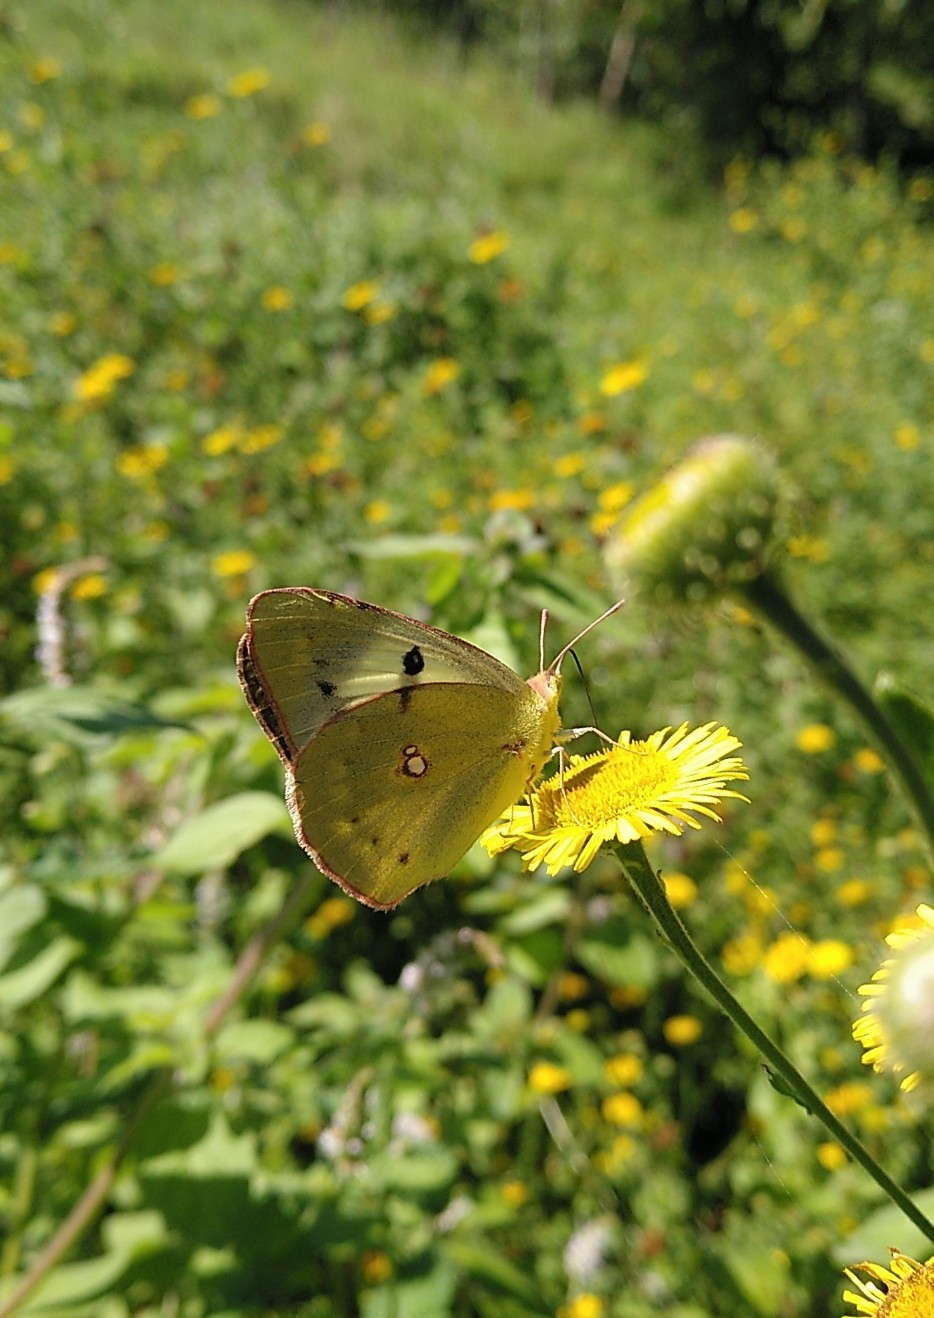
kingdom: Animalia
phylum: Arthropoda
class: Insecta
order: Lepidoptera
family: Pieridae
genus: Colias
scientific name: Colias croceus
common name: Clouded yellow
